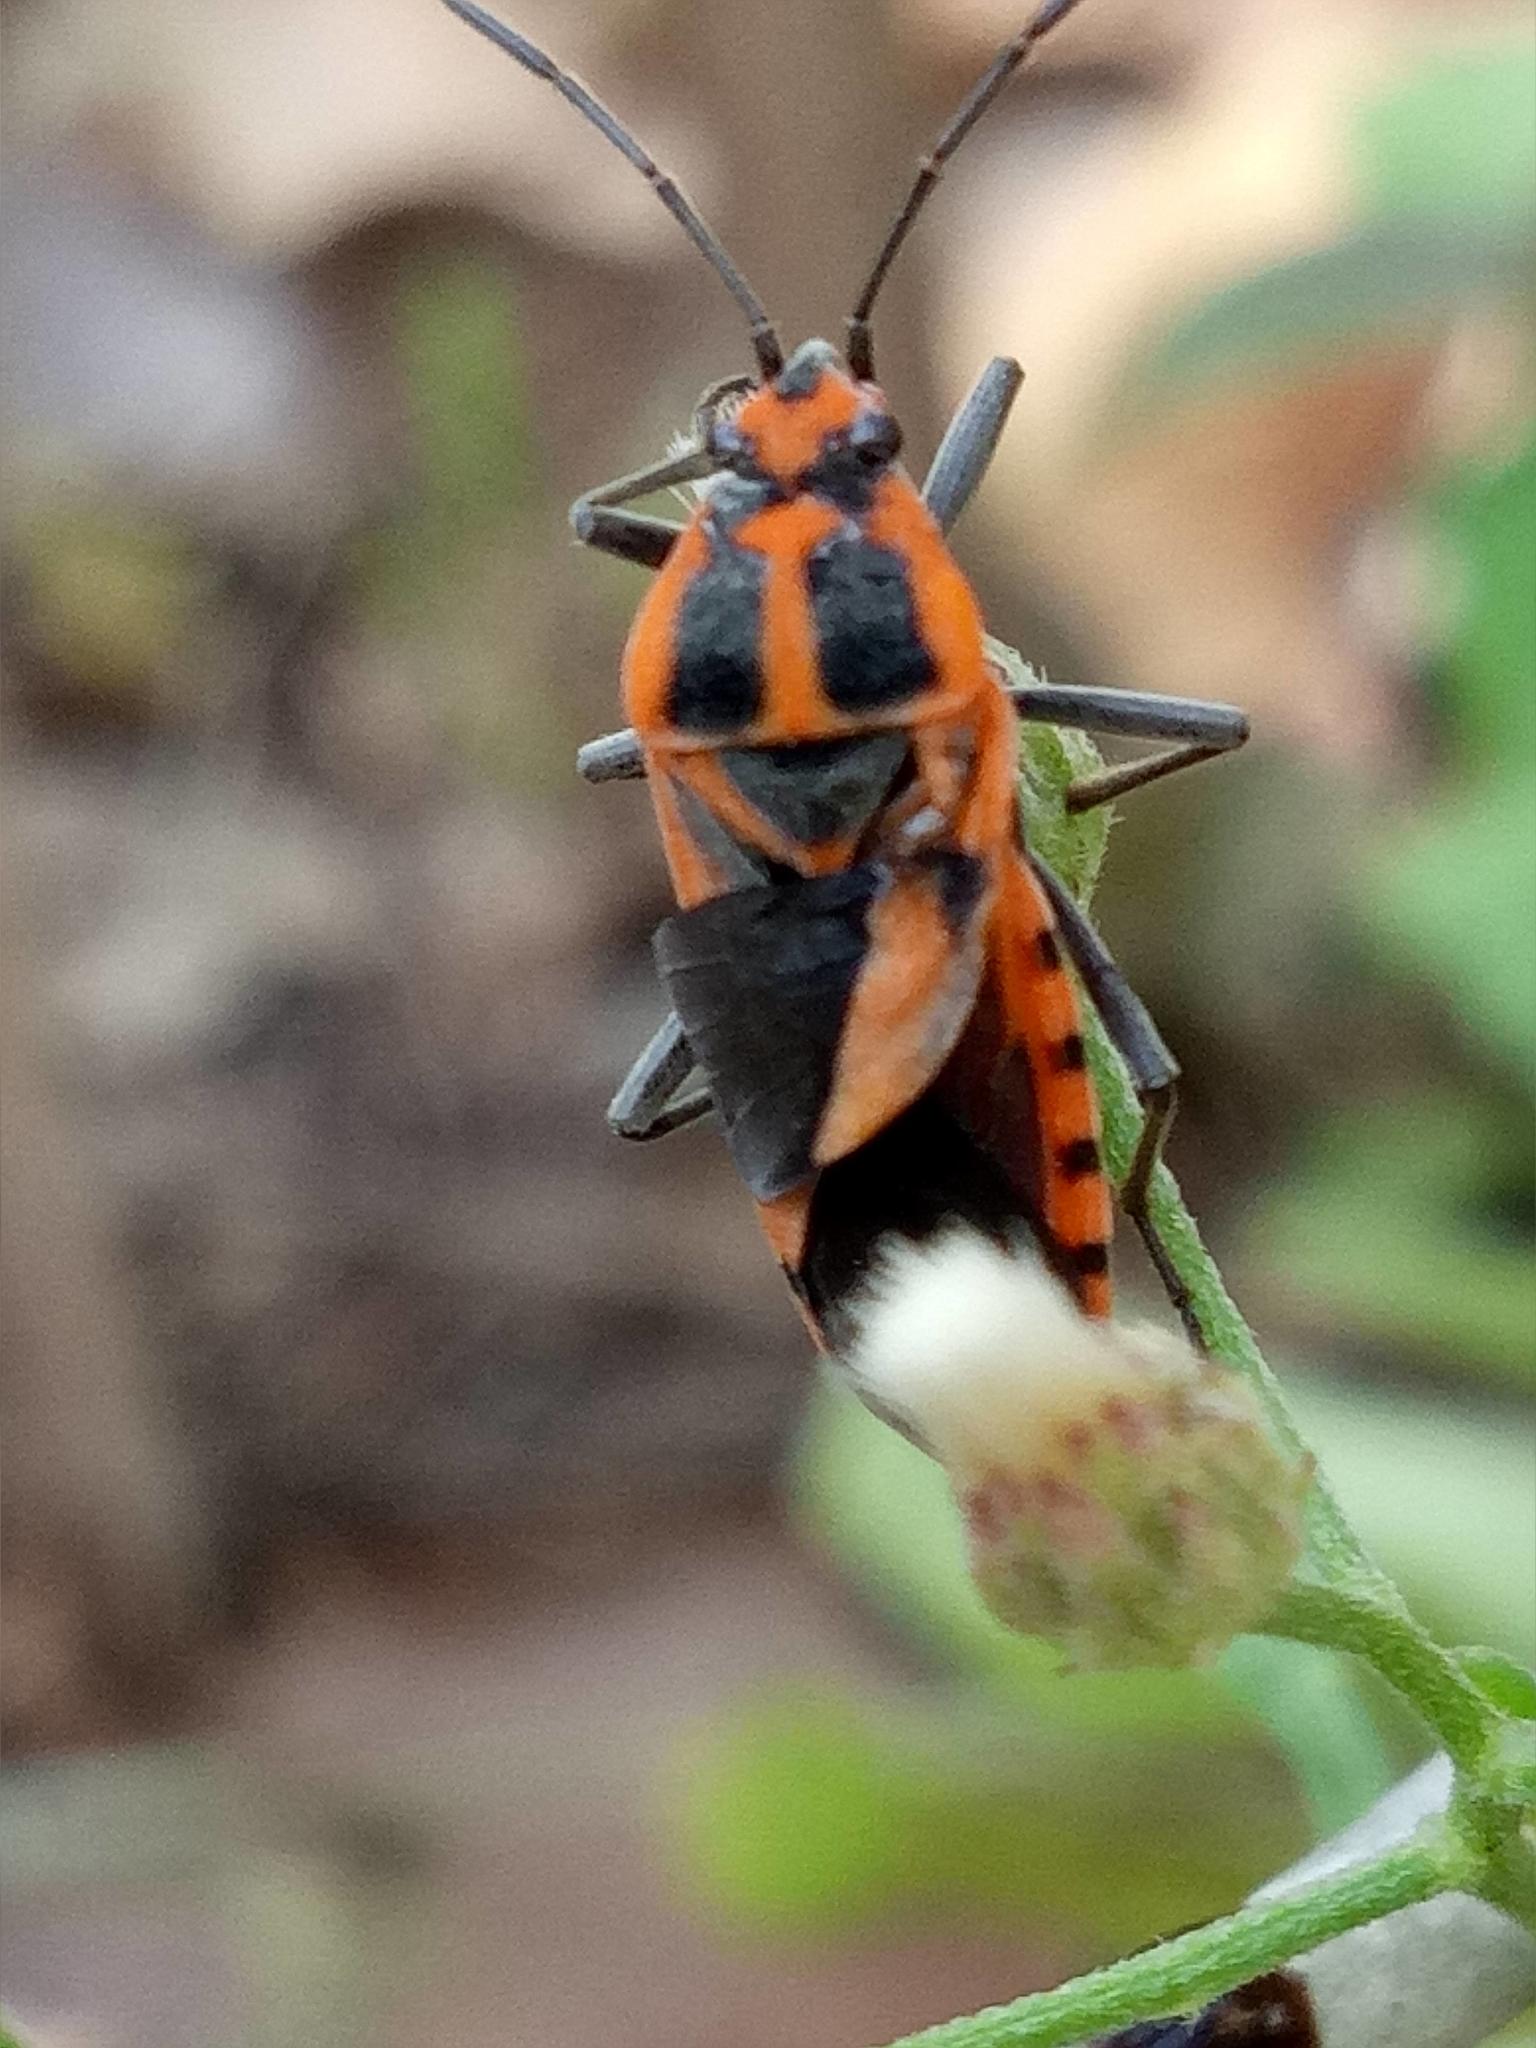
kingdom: Animalia
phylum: Arthropoda
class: Insecta
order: Hemiptera
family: Lygaeidae
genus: Spilostethus
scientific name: Spilostethus hospes
